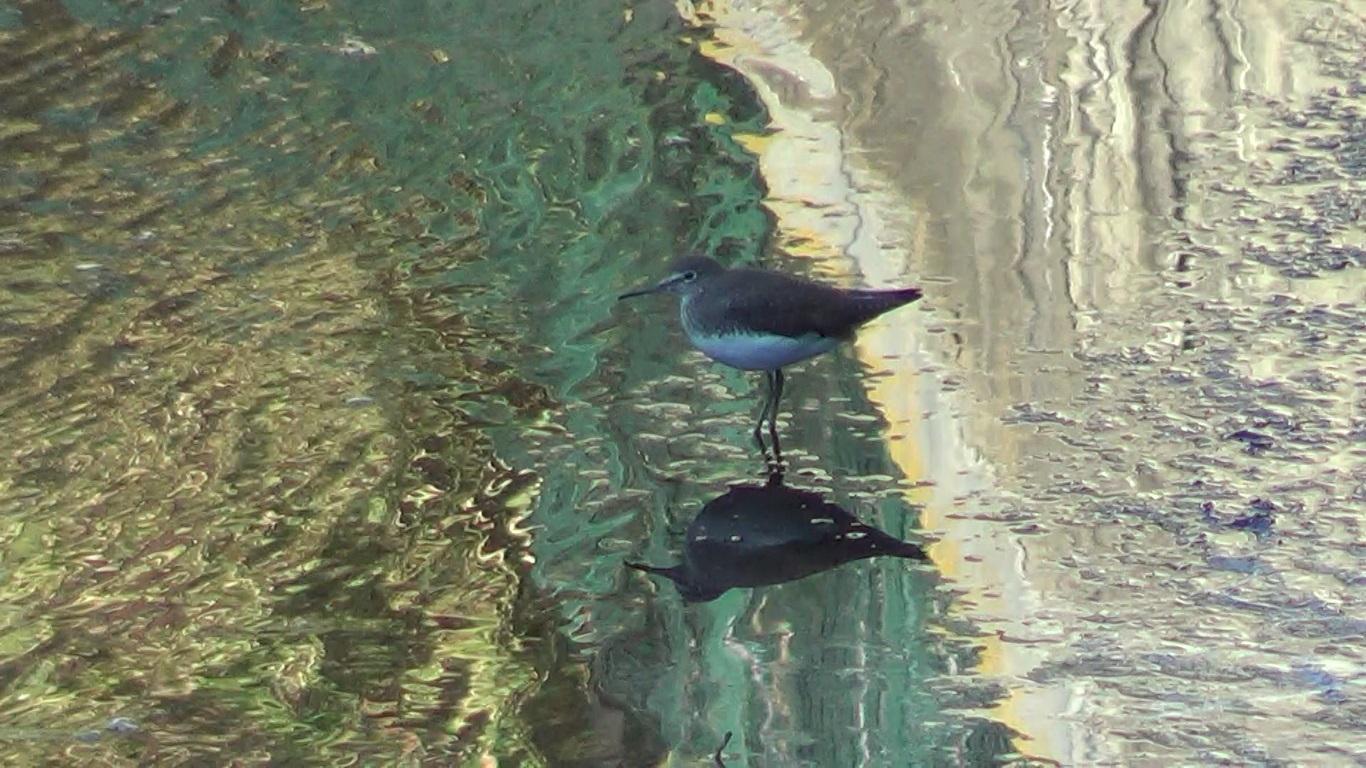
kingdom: Animalia
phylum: Chordata
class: Aves
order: Charadriiformes
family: Scolopacidae
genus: Tringa
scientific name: Tringa ochropus
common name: Green sandpiper
